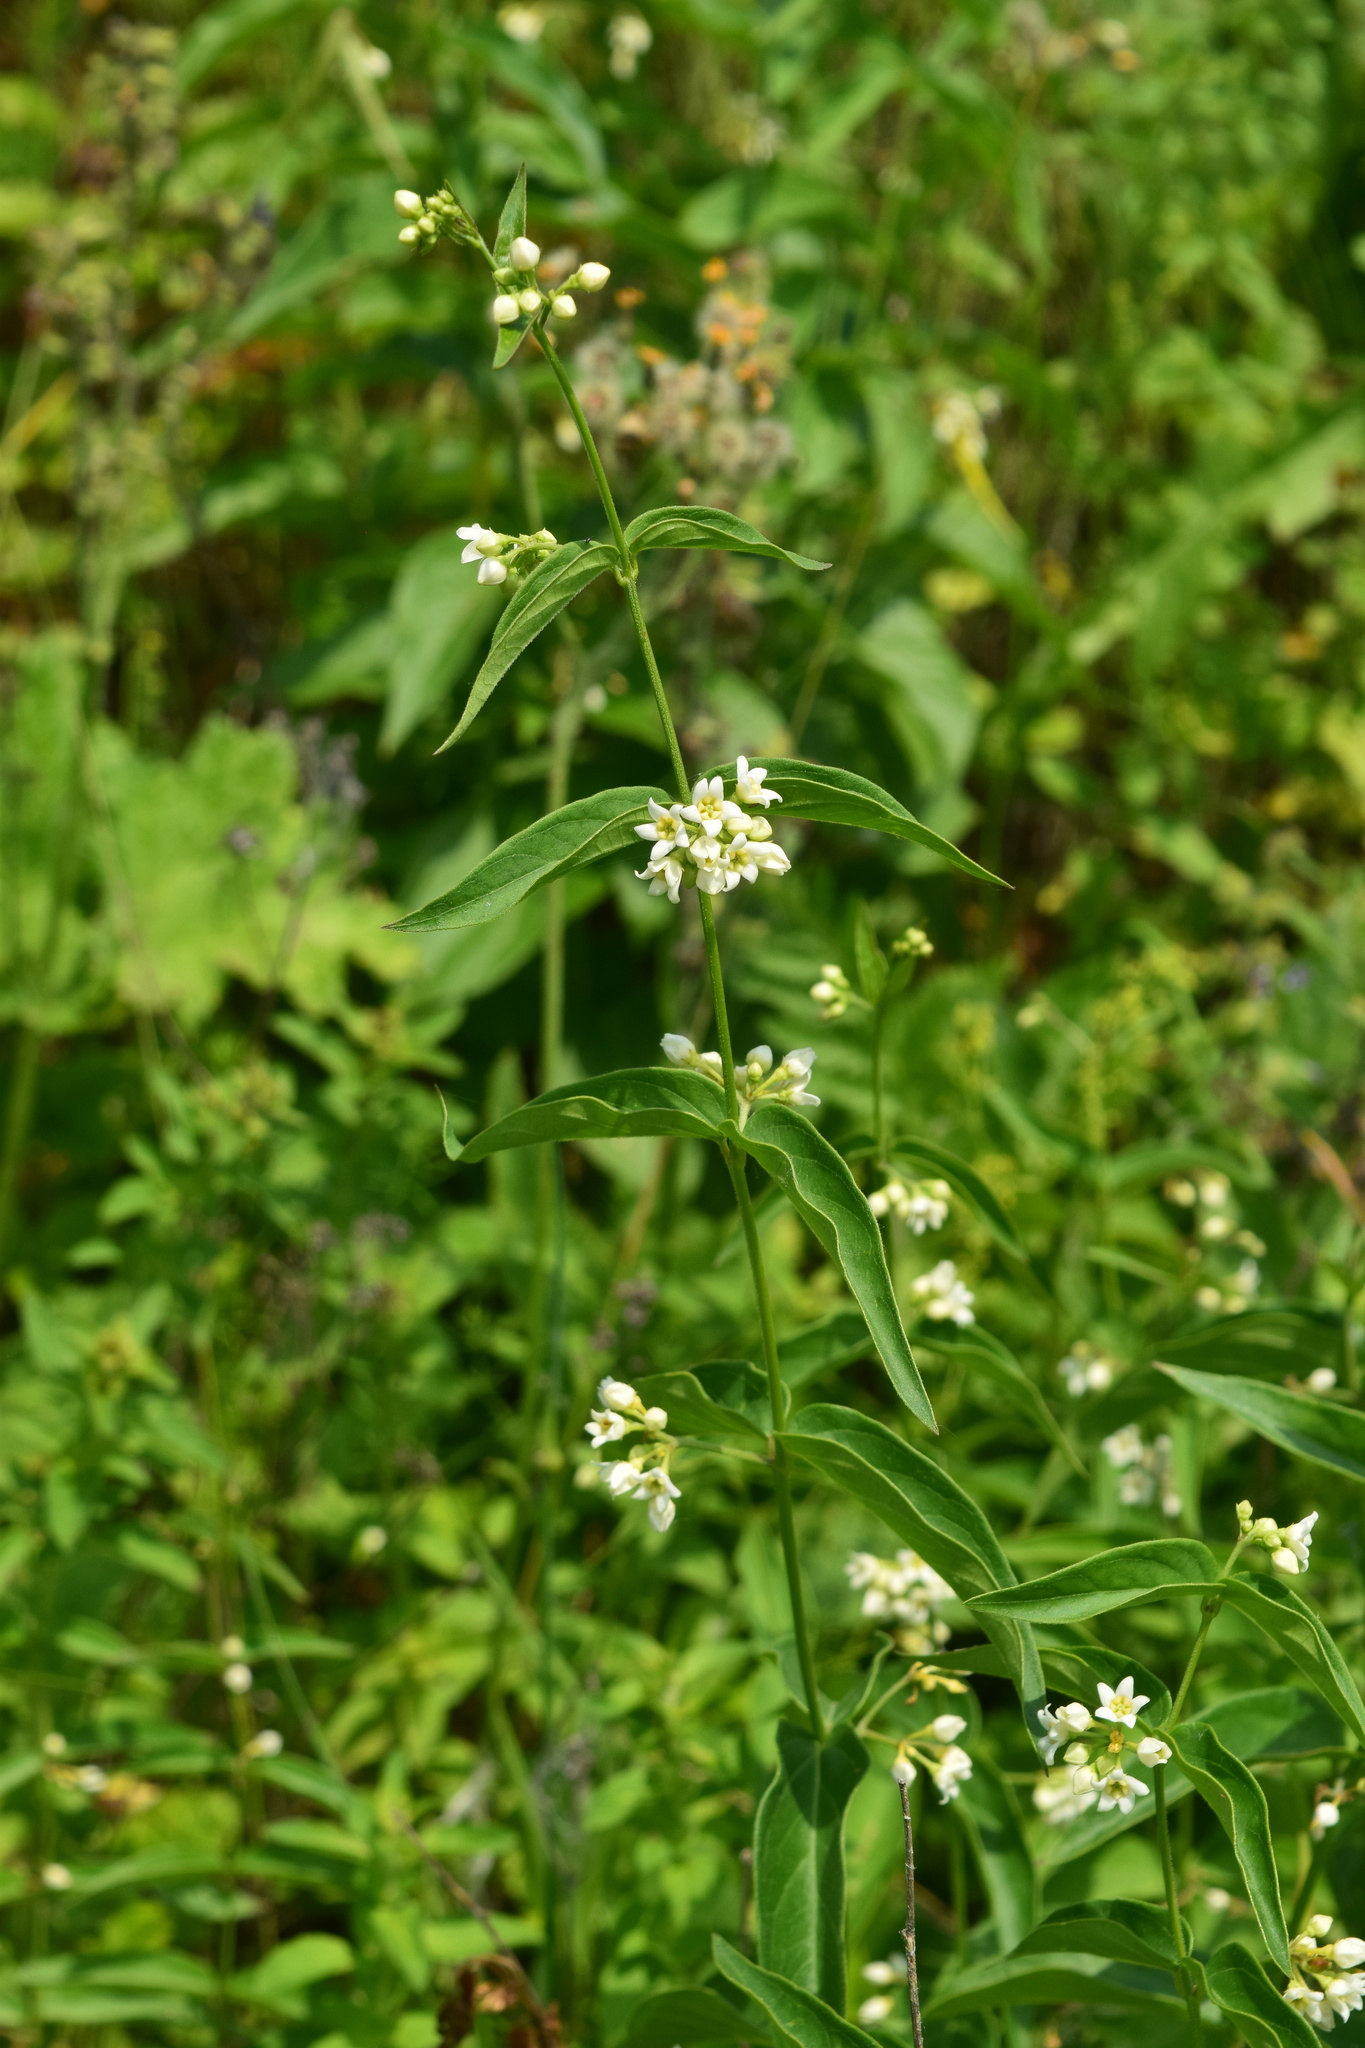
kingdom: Plantae
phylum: Tracheophyta
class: Magnoliopsida
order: Gentianales
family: Apocynaceae
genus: Vincetoxicum
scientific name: Vincetoxicum hirundinaria
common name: White swallowwort
